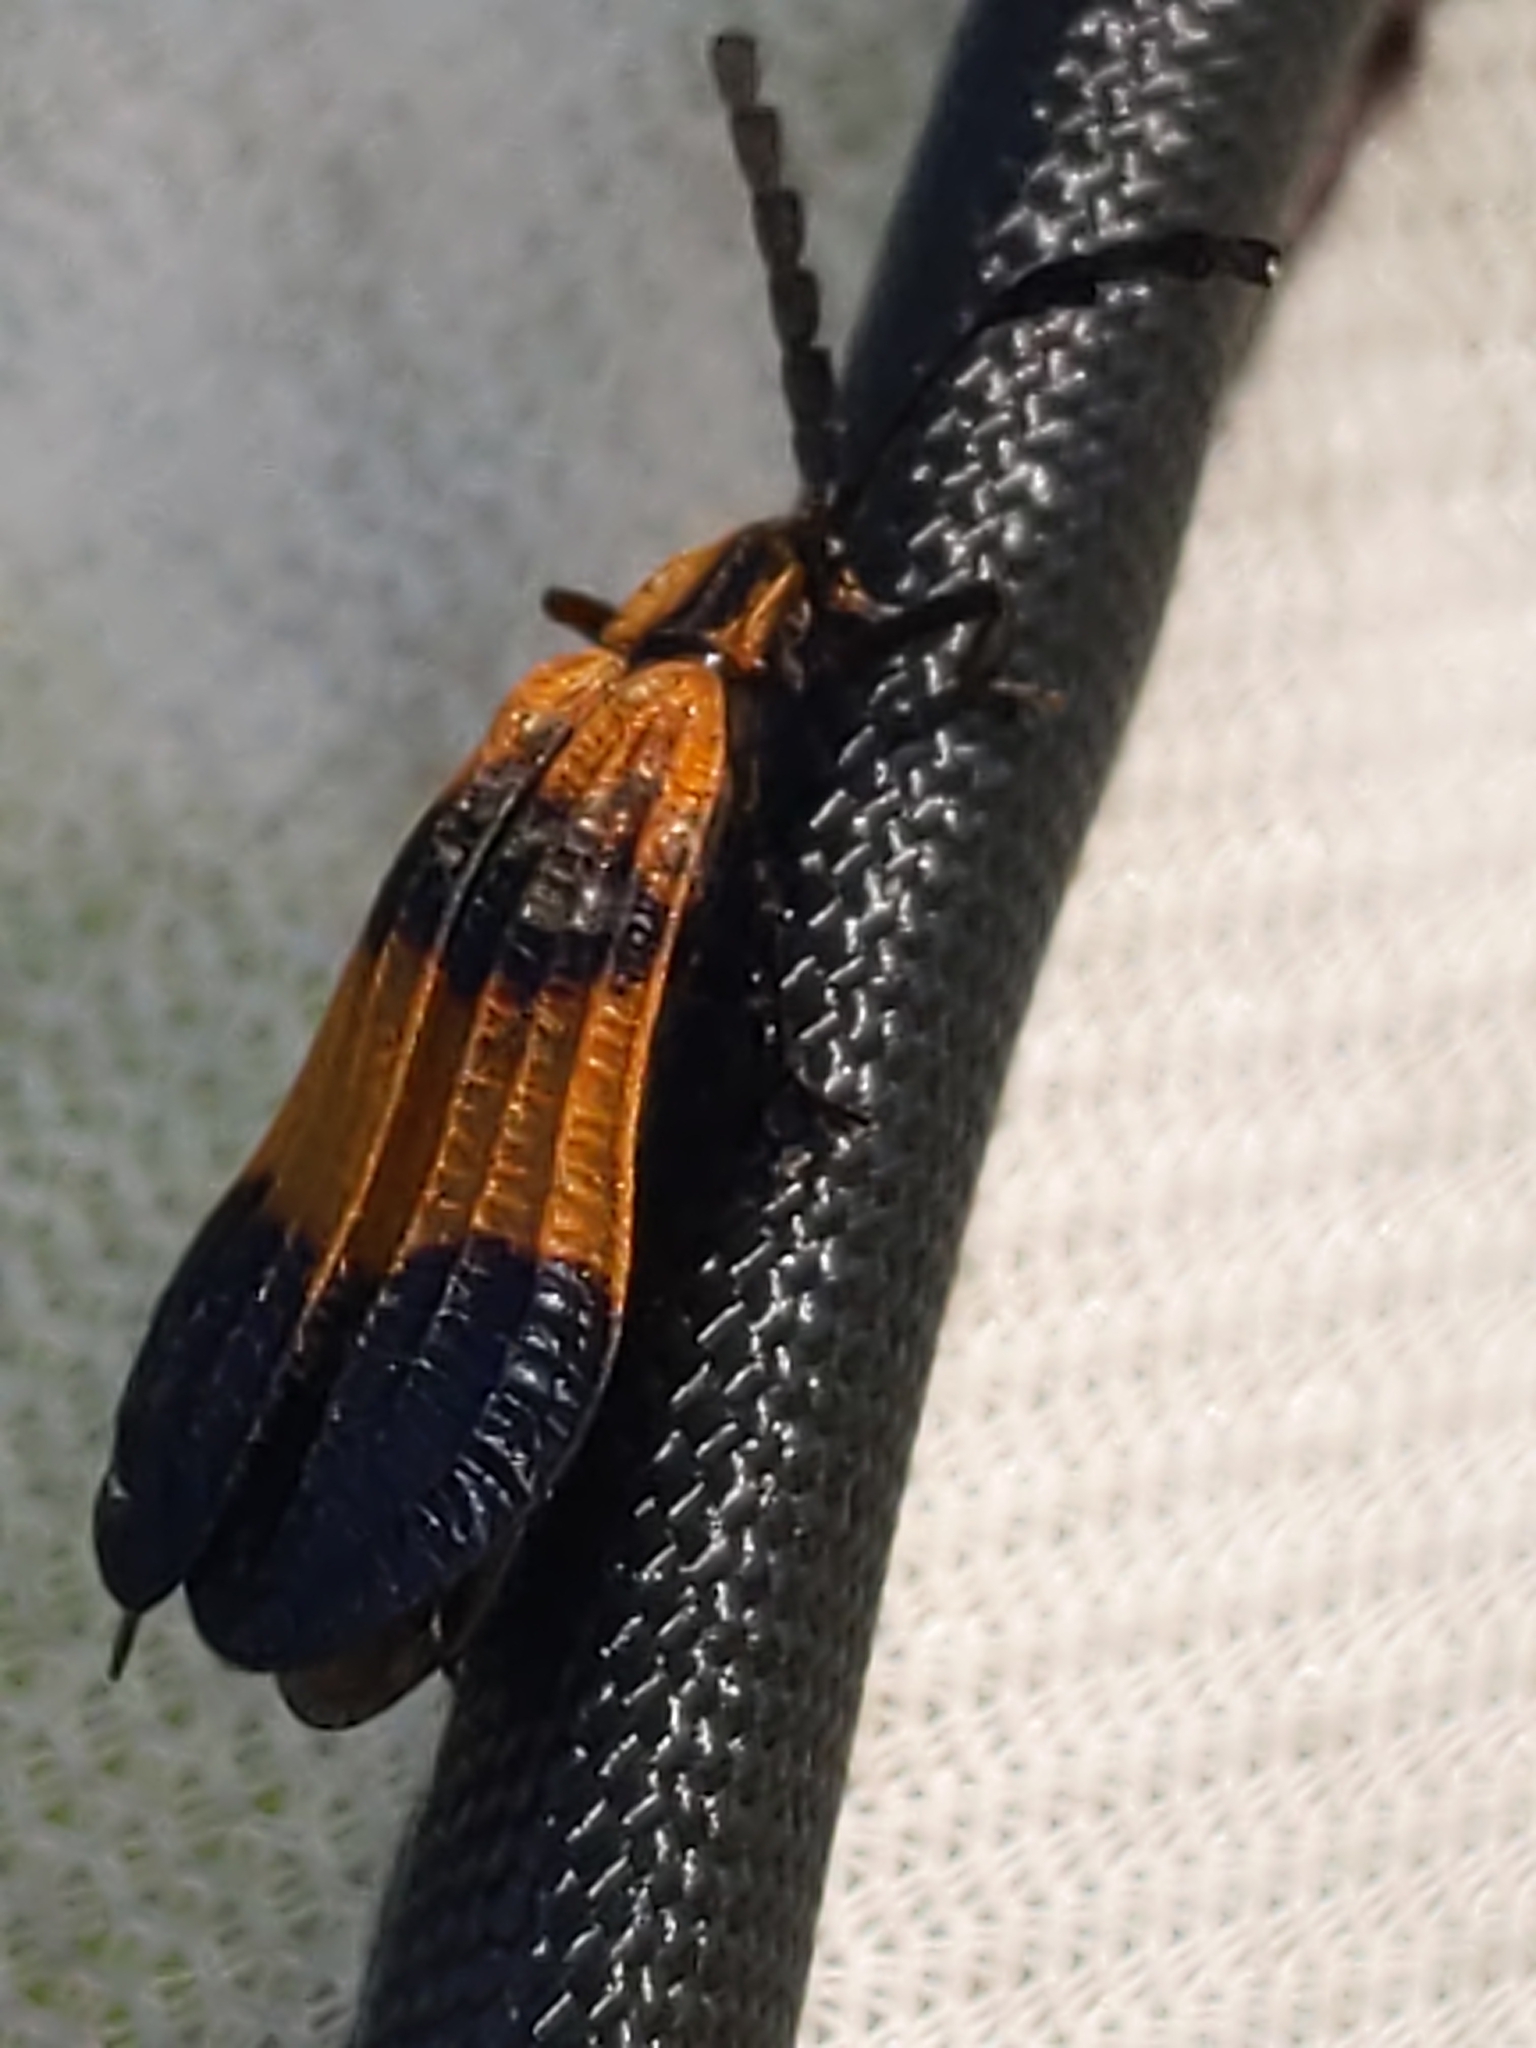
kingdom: Animalia
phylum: Arthropoda
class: Insecta
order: Coleoptera
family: Lycidae
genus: Calopteron
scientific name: Calopteron terminale
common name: End band net-winged beetle
